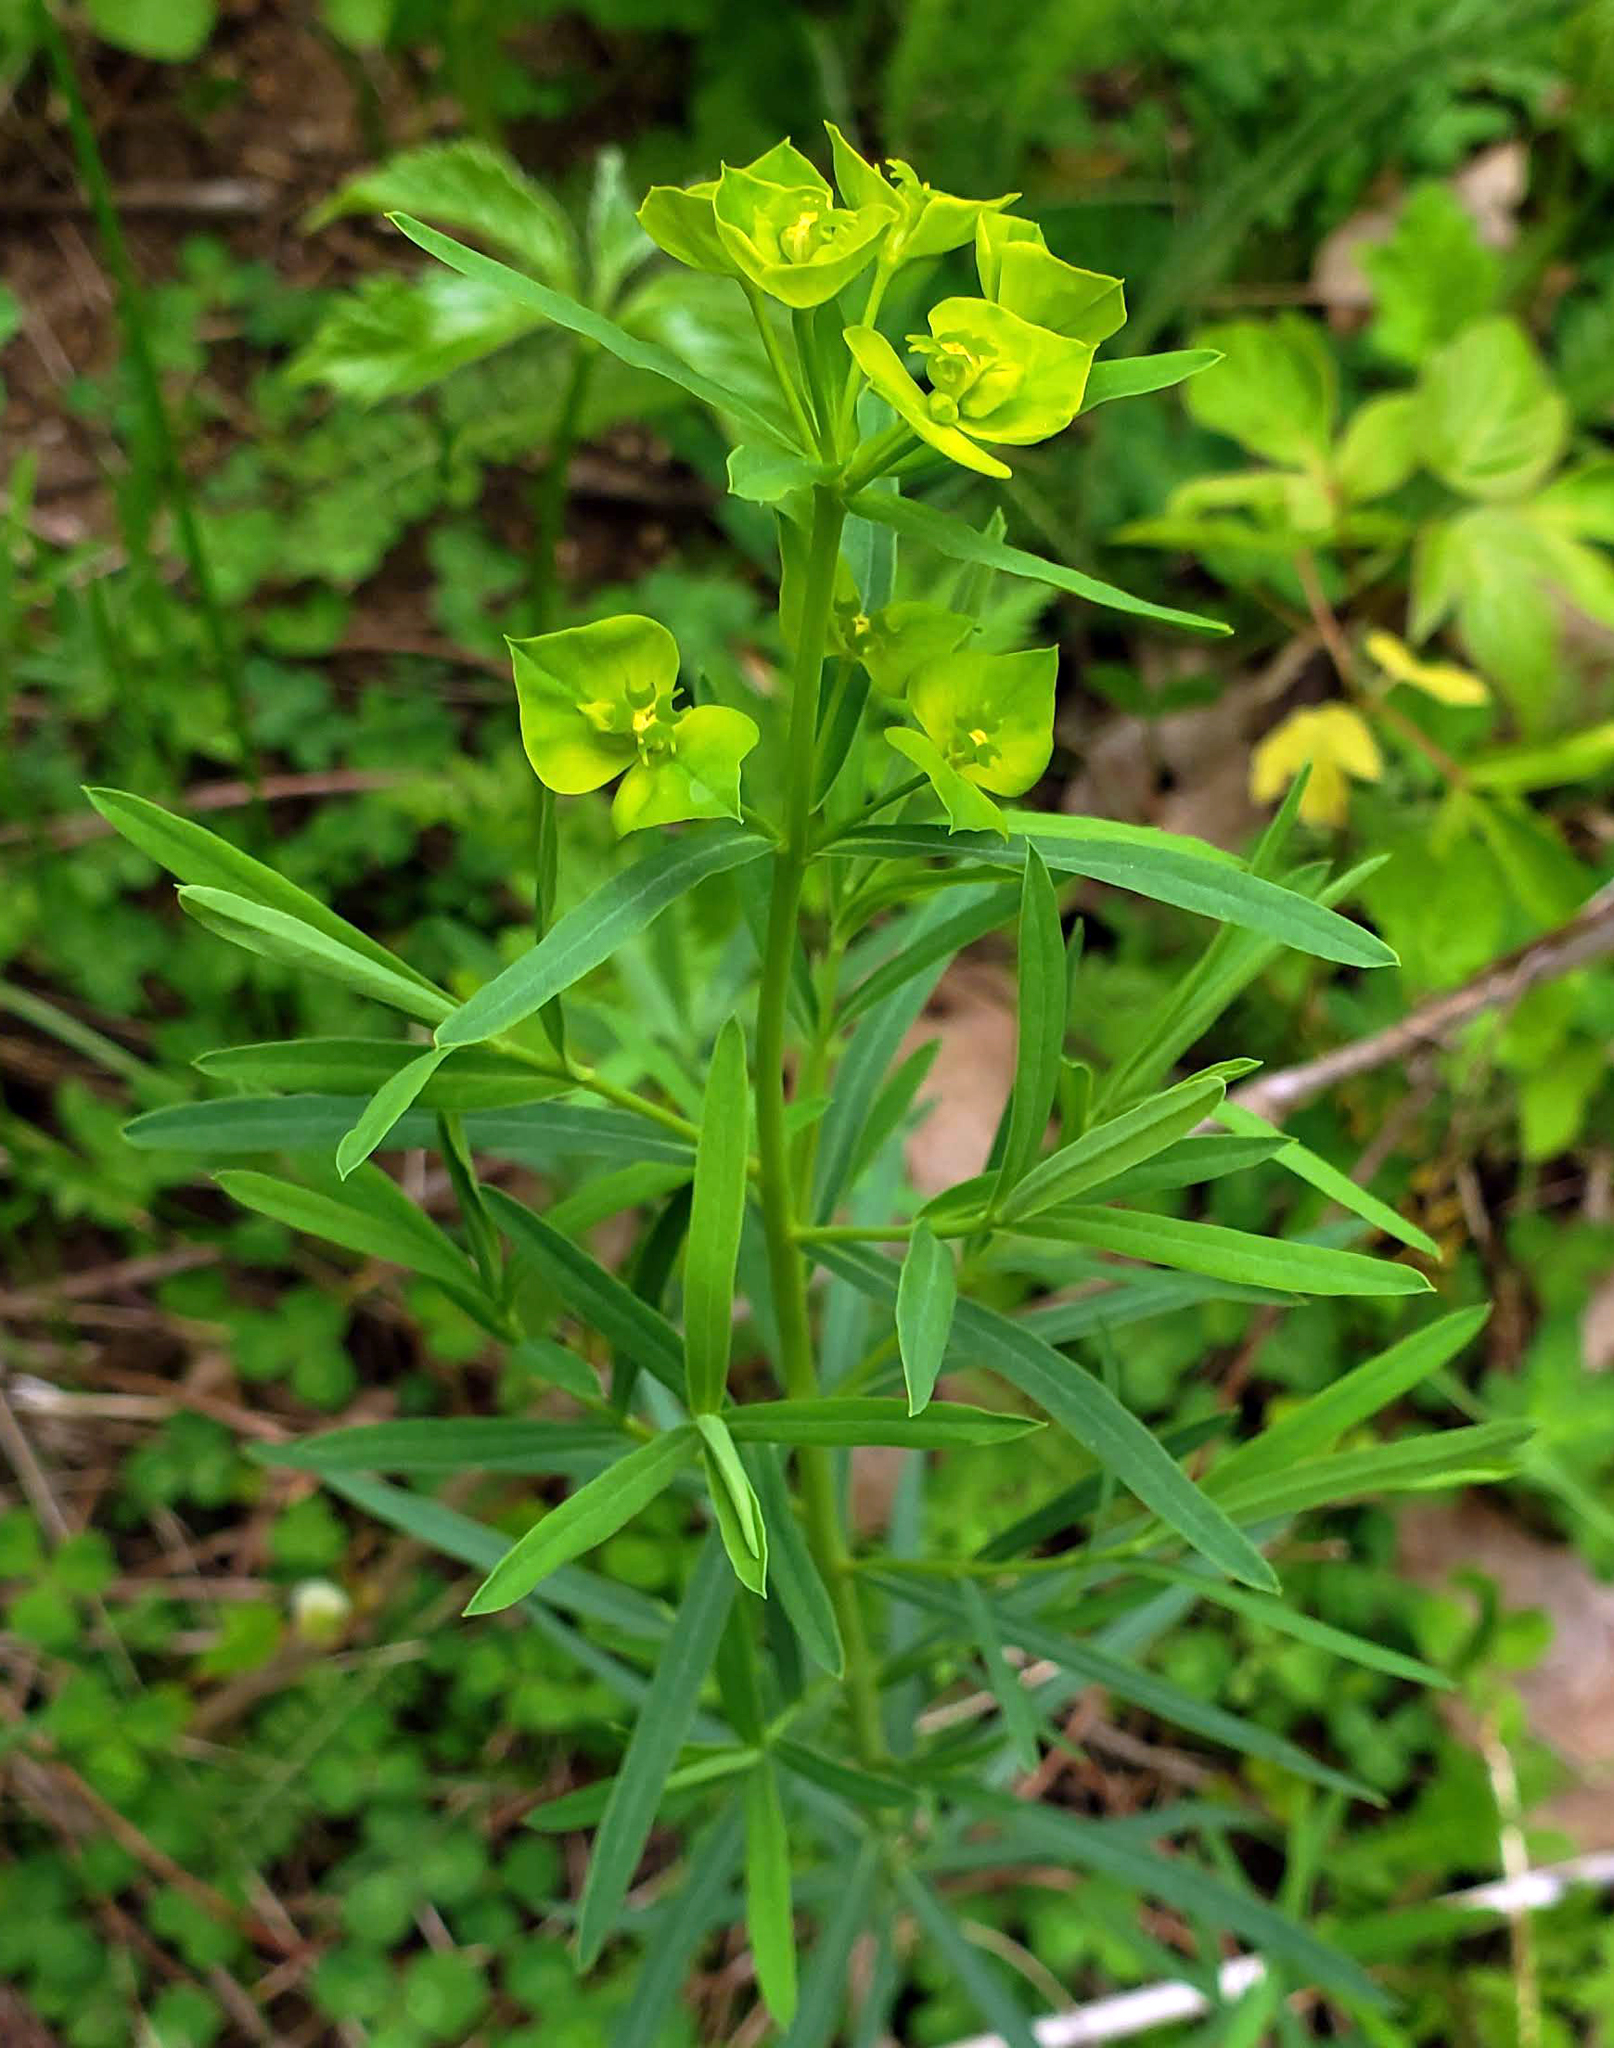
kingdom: Plantae
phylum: Tracheophyta
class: Magnoliopsida
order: Malpighiales
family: Euphorbiaceae
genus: Euphorbia
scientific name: Euphorbia virgata
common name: Leafy spurge
